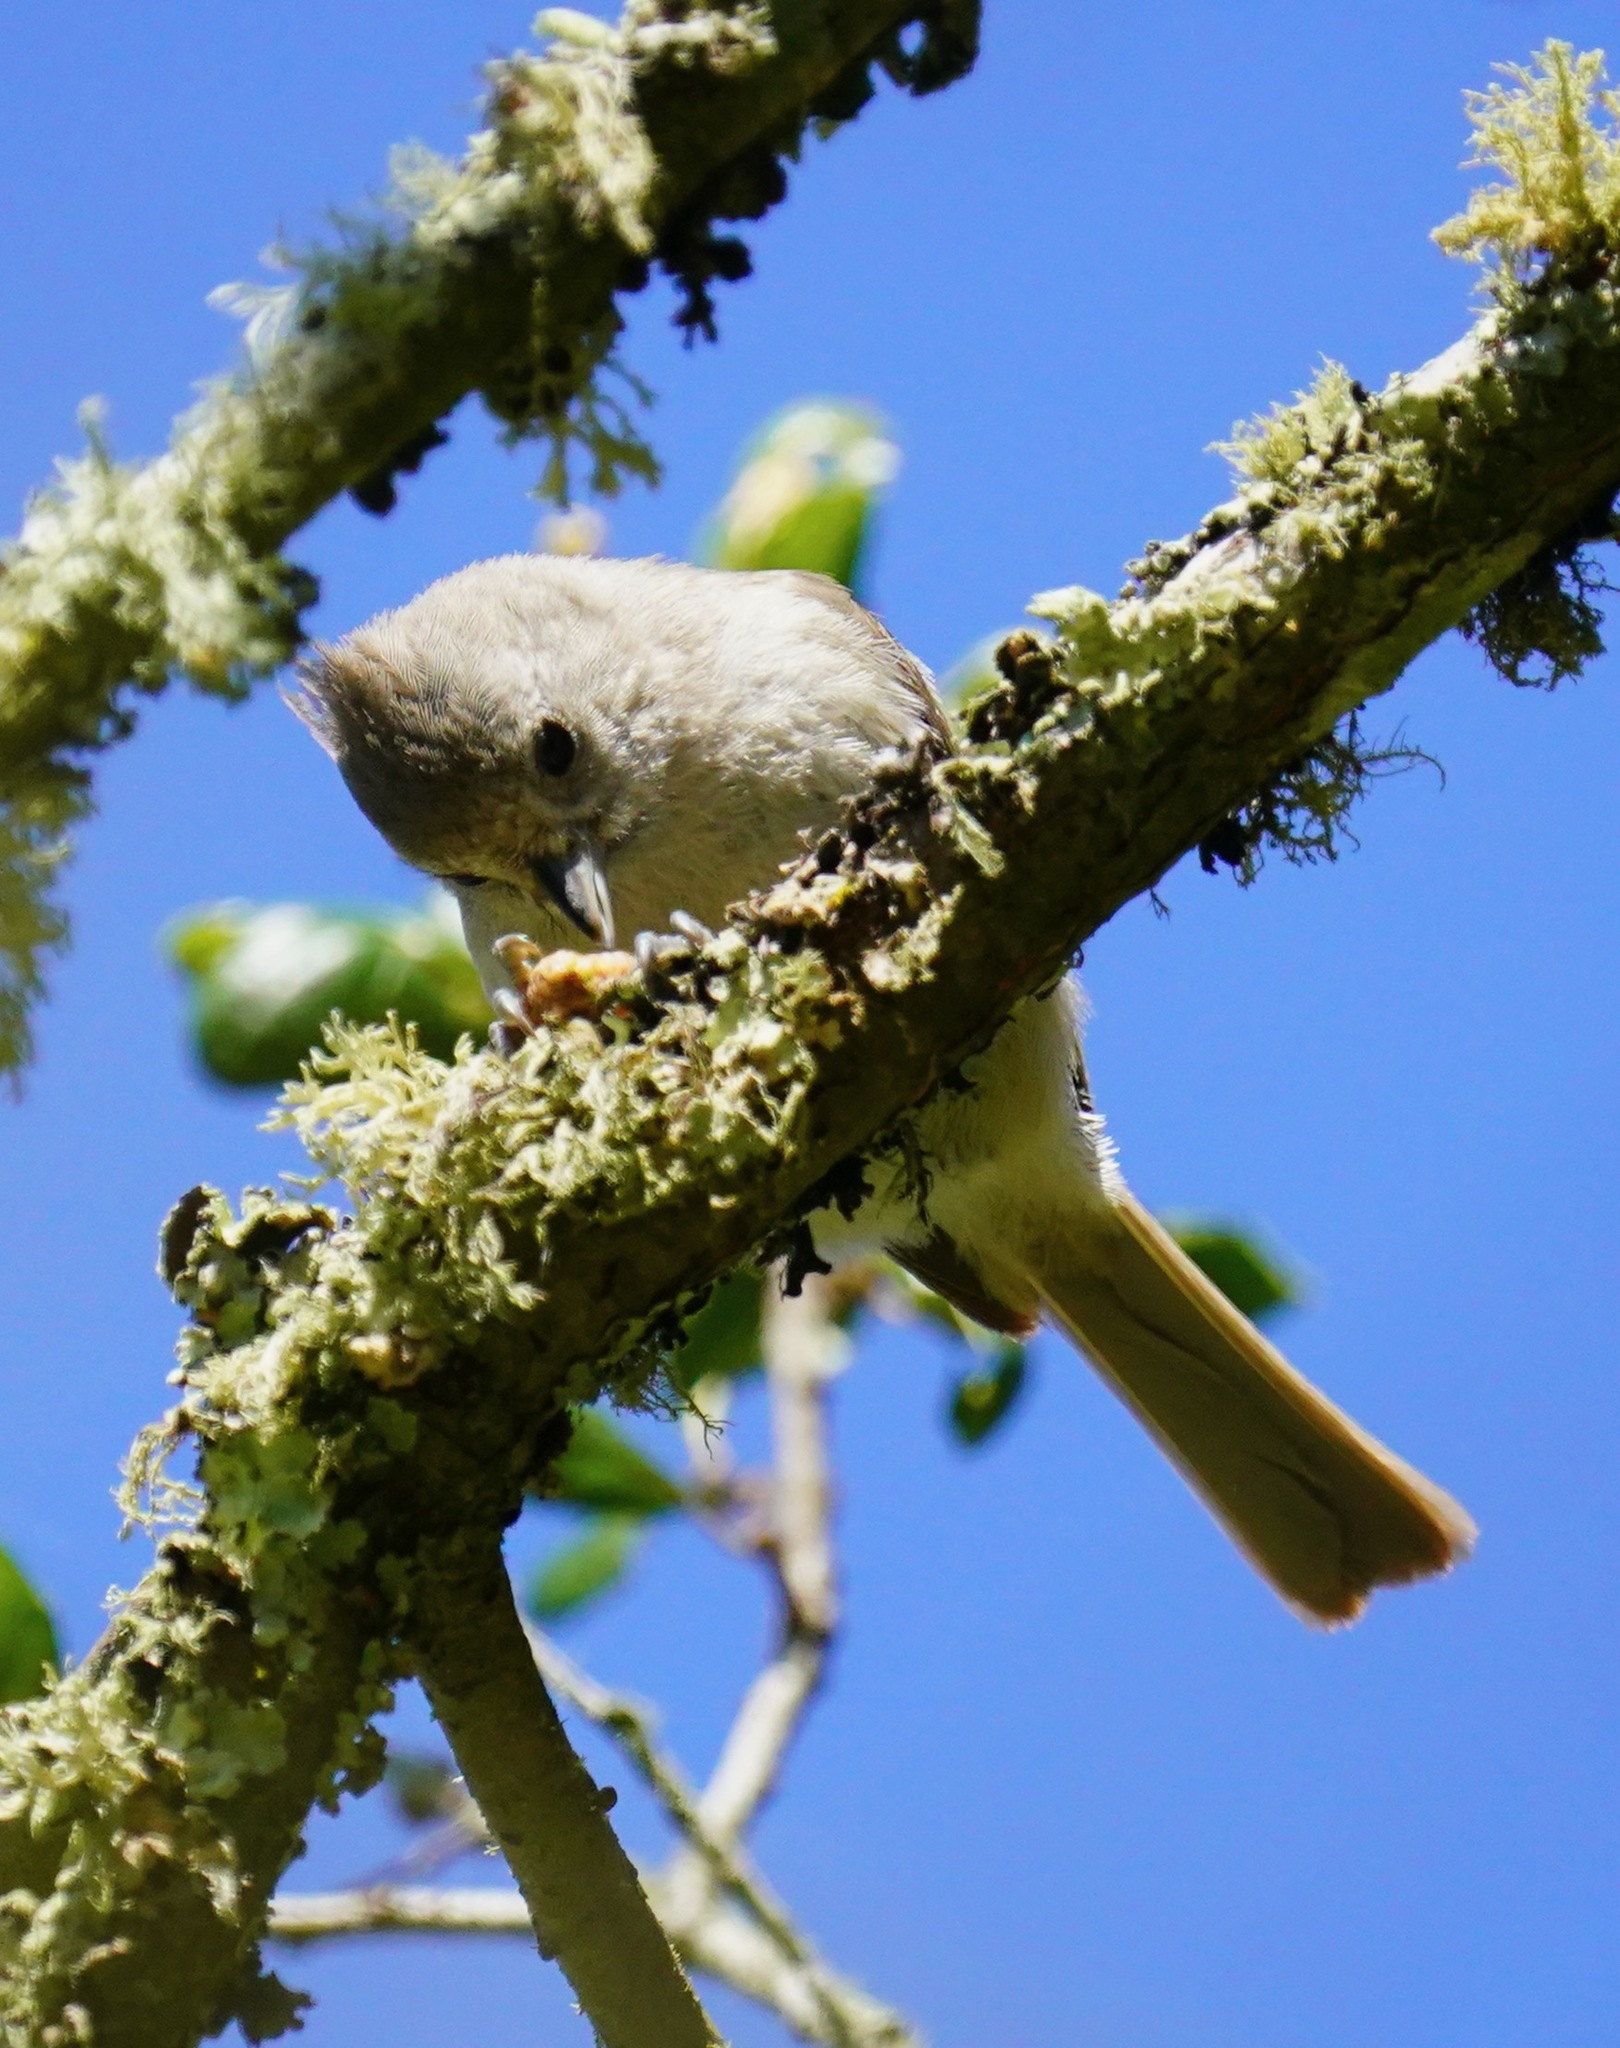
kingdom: Animalia
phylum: Chordata
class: Aves
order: Passeriformes
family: Paridae
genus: Baeolophus
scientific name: Baeolophus inornatus
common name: Oak titmouse
